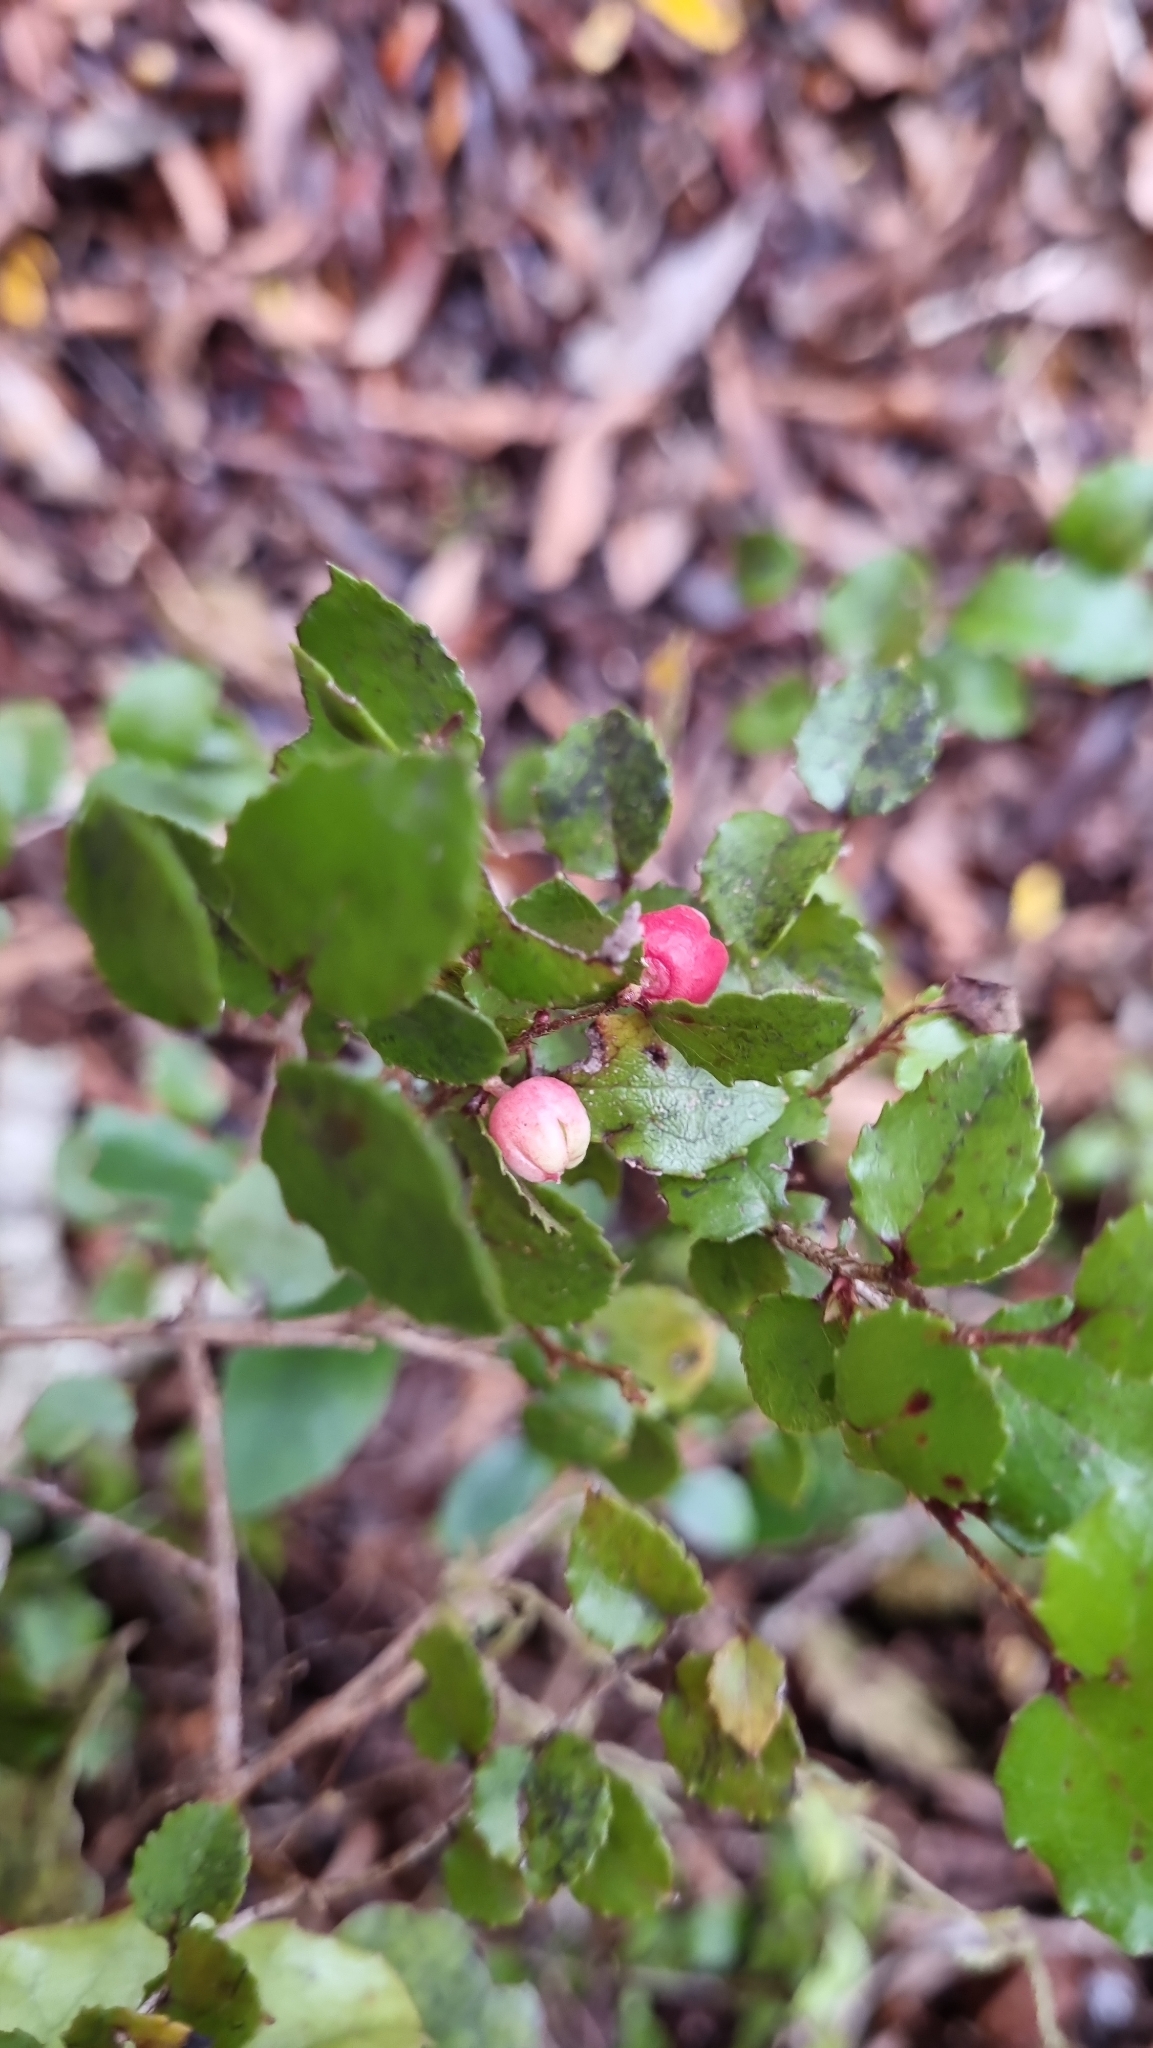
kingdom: Plantae
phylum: Tracheophyta
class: Magnoliopsida
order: Ericales
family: Ericaceae
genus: Gaultheria
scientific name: Gaultheria antipoda
